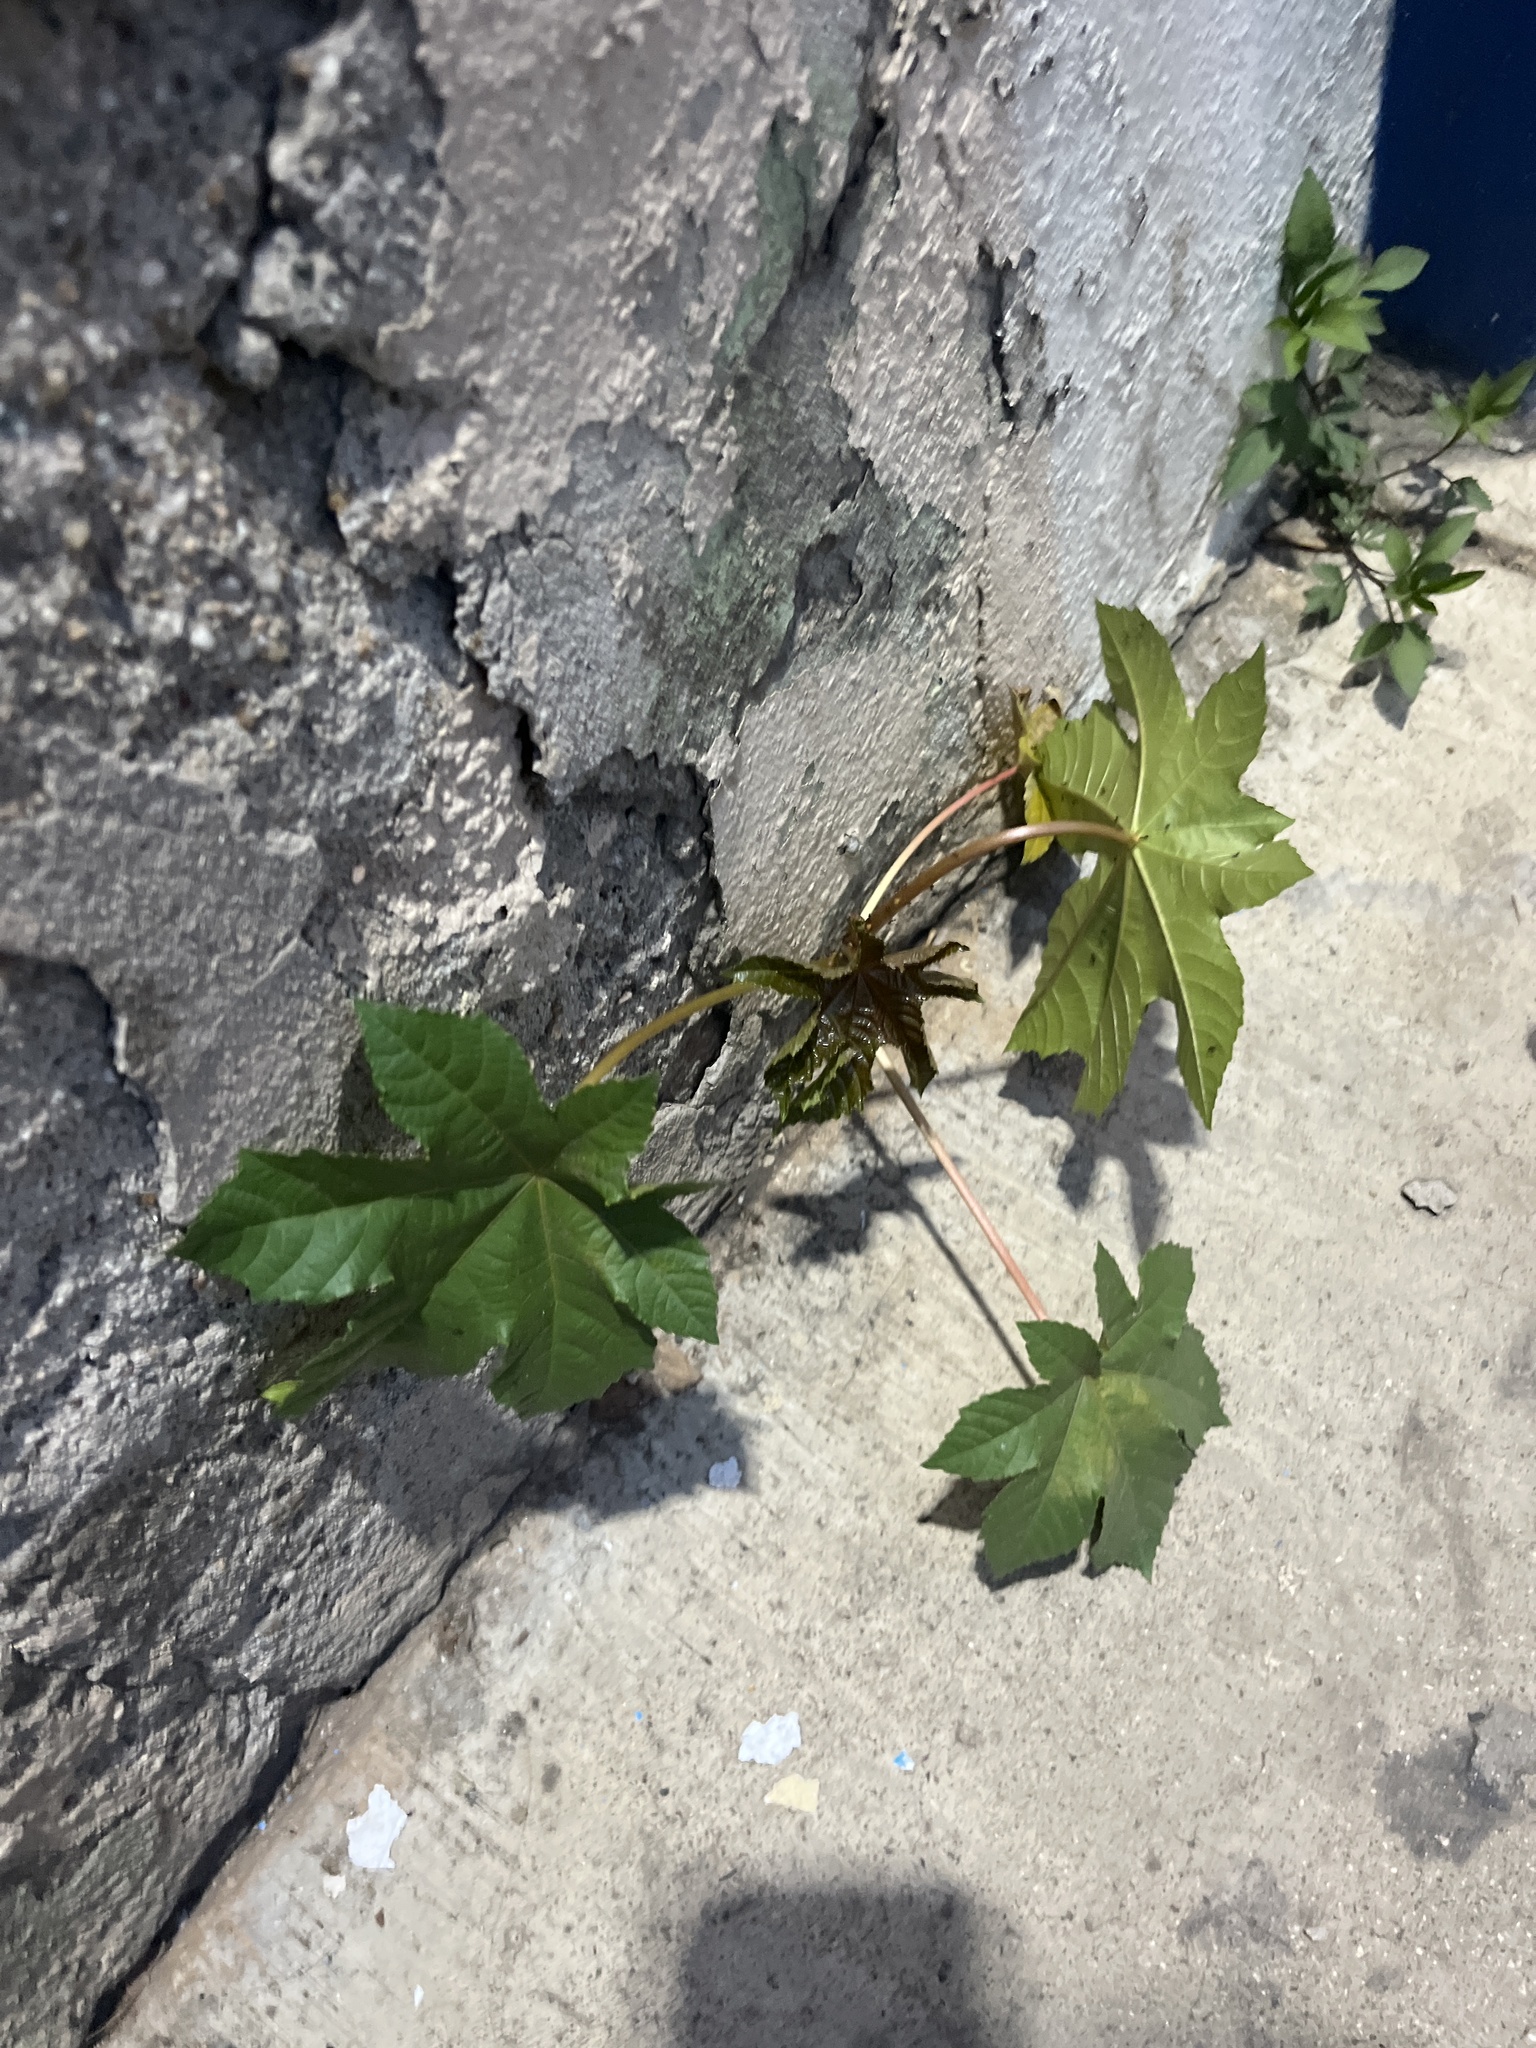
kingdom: Plantae
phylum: Tracheophyta
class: Magnoliopsida
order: Malpighiales
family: Euphorbiaceae
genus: Ricinus
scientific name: Ricinus communis
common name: Castor-oil-plant
